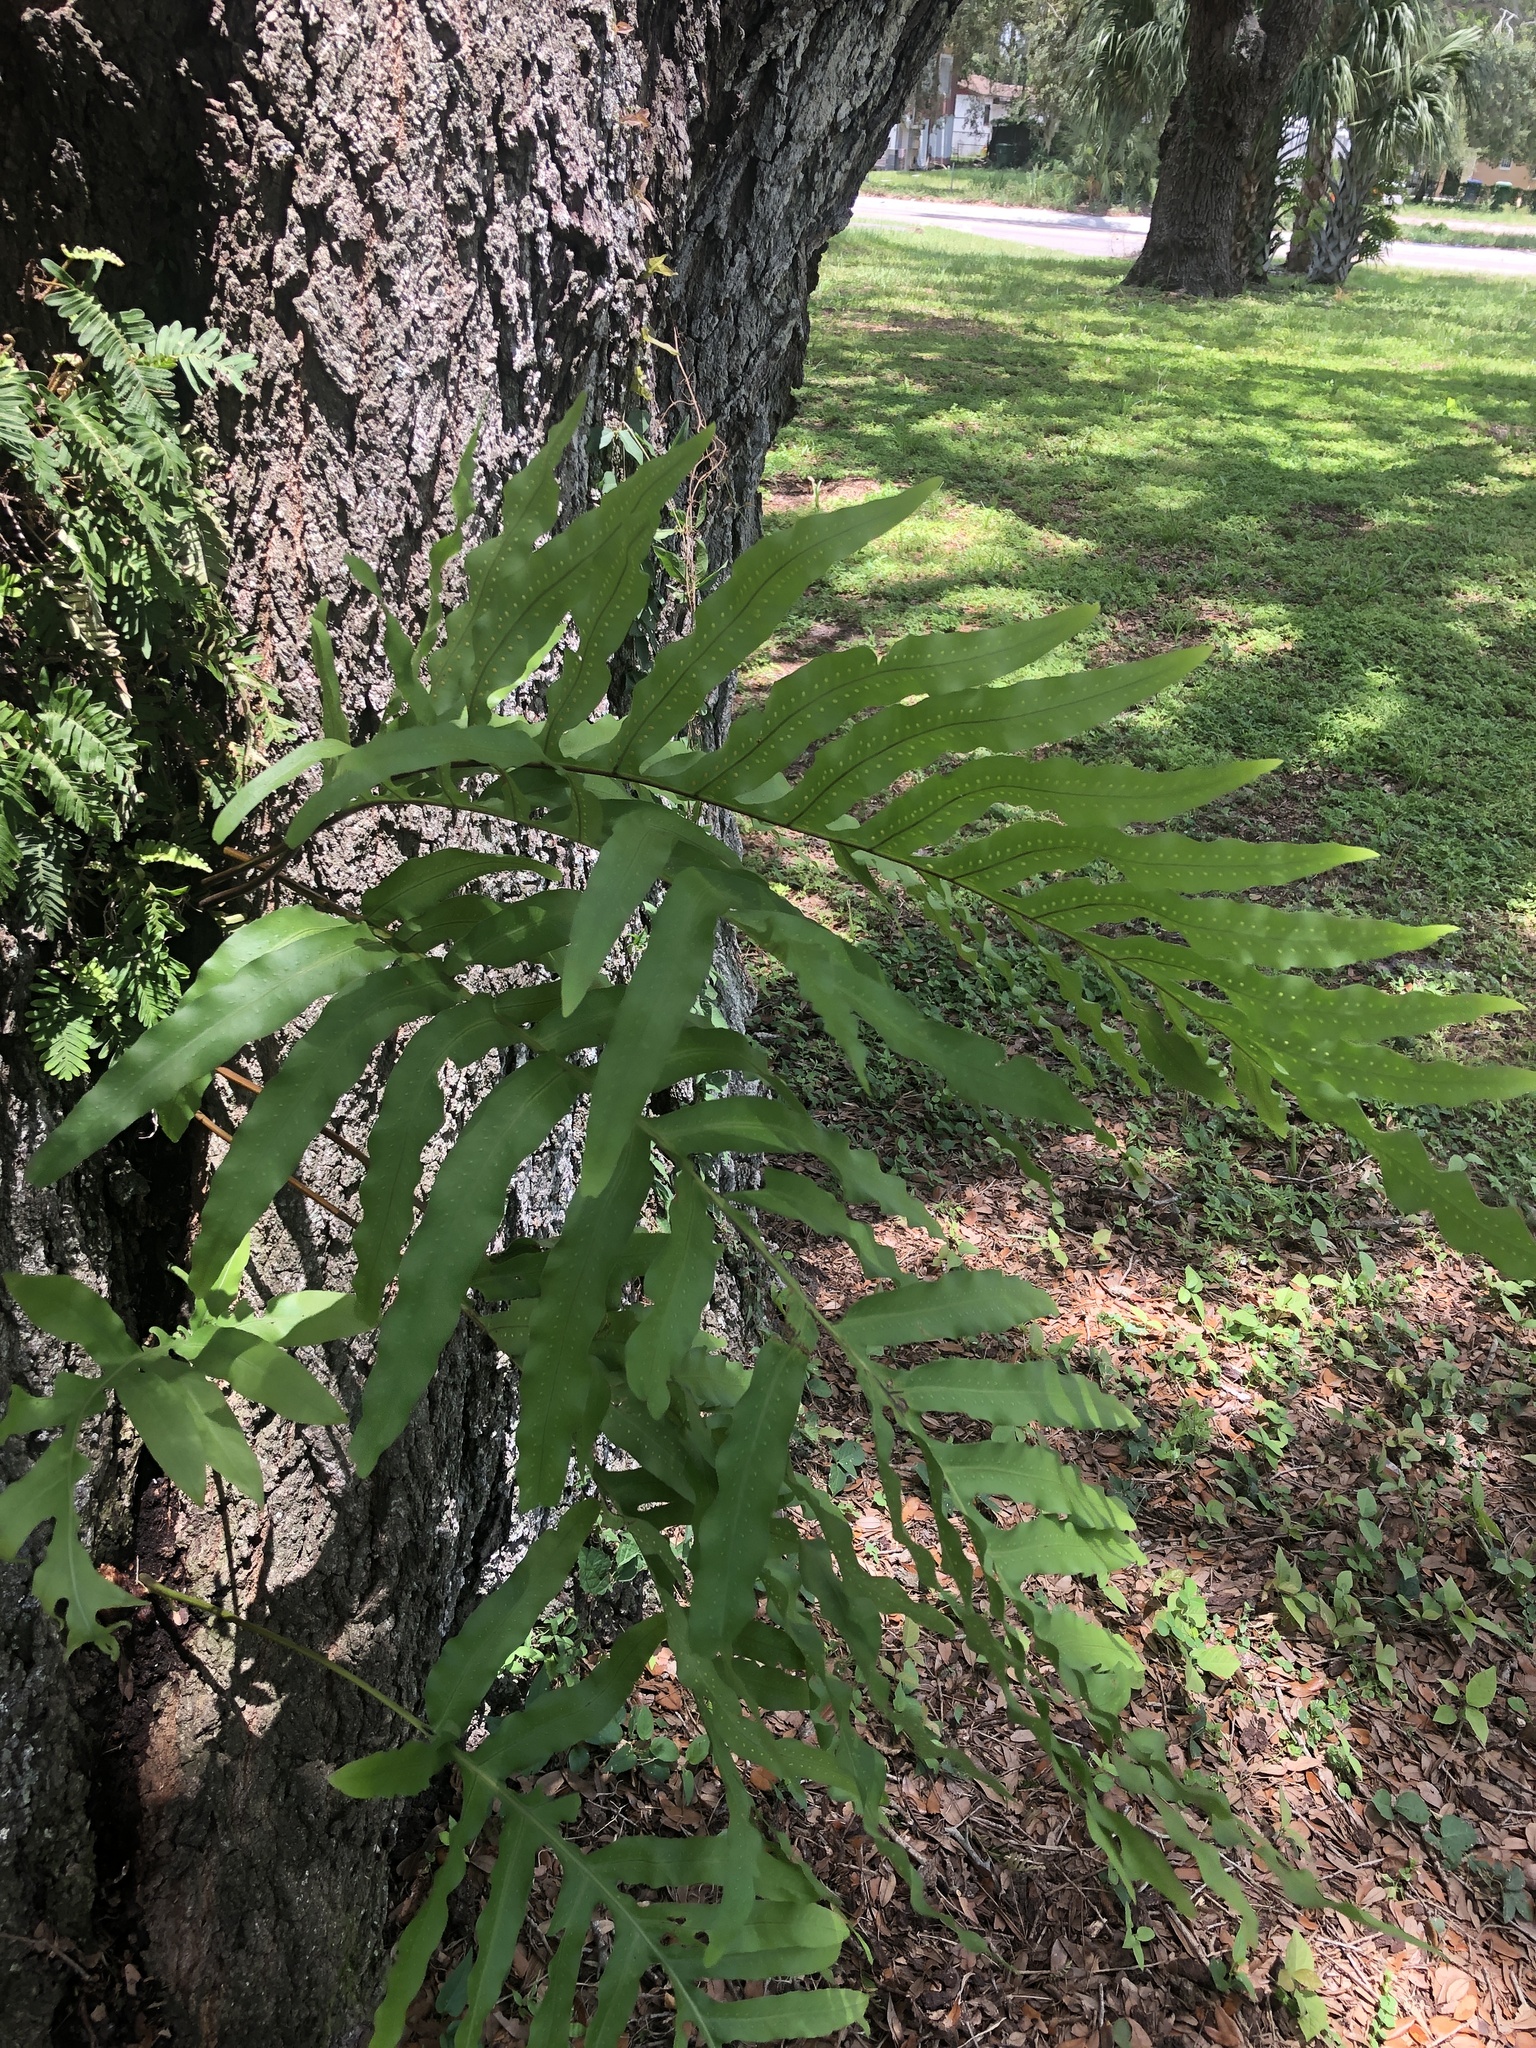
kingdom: Plantae
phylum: Tracheophyta
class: Polypodiopsida
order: Polypodiales
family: Polypodiaceae
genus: Phlebodium
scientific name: Phlebodium aureum
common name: Gold-foot fern
